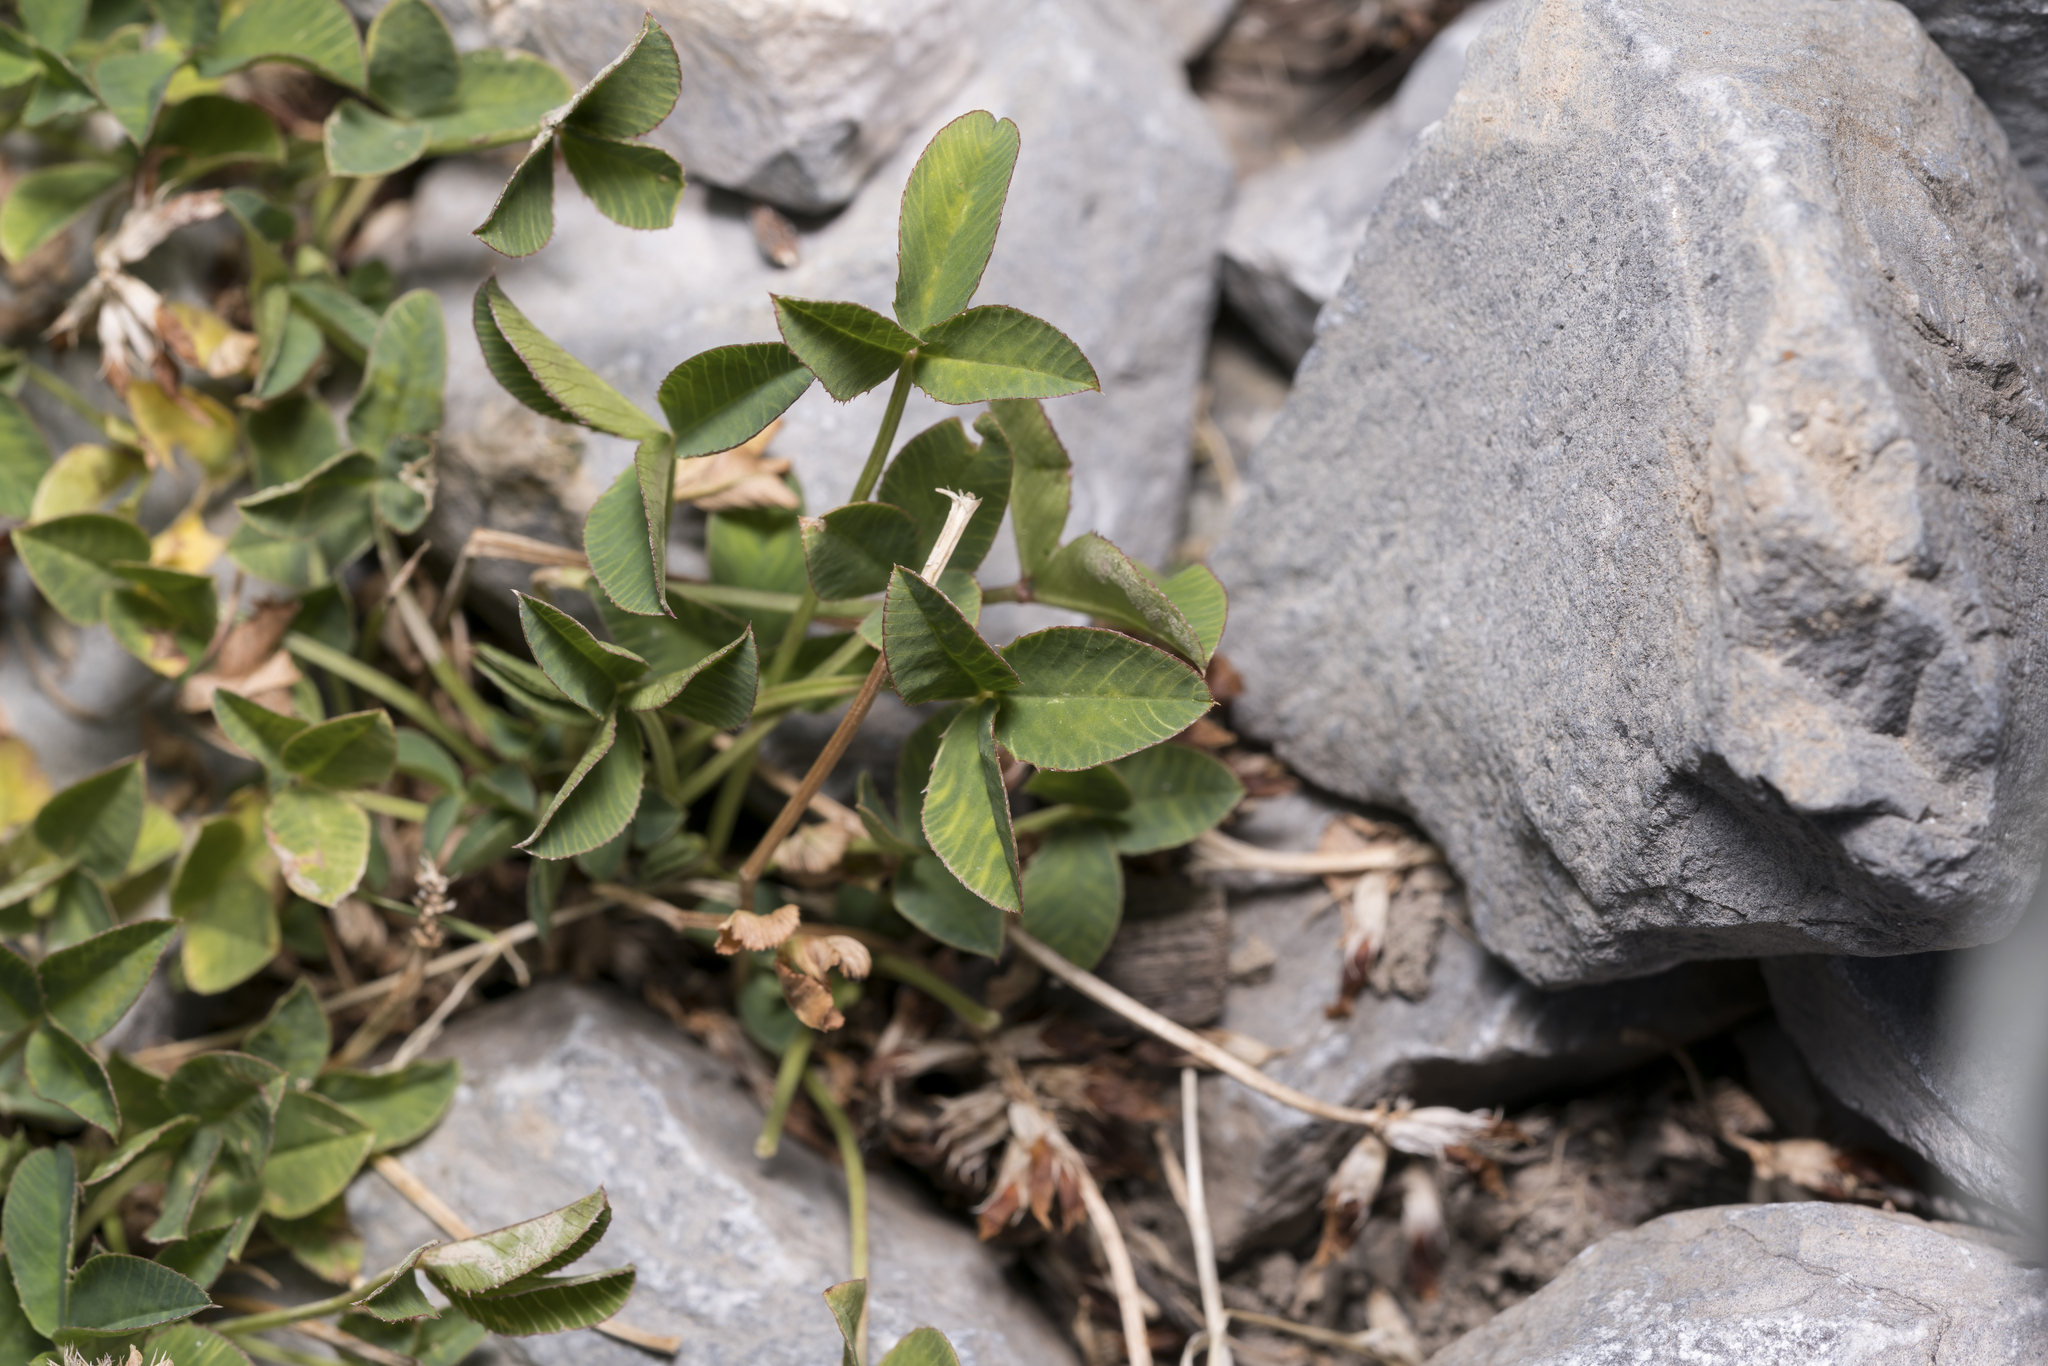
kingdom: Plantae
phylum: Tracheophyta
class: Magnoliopsida
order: Fabales
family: Fabaceae
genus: Trifolium
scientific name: Trifolium thalii
